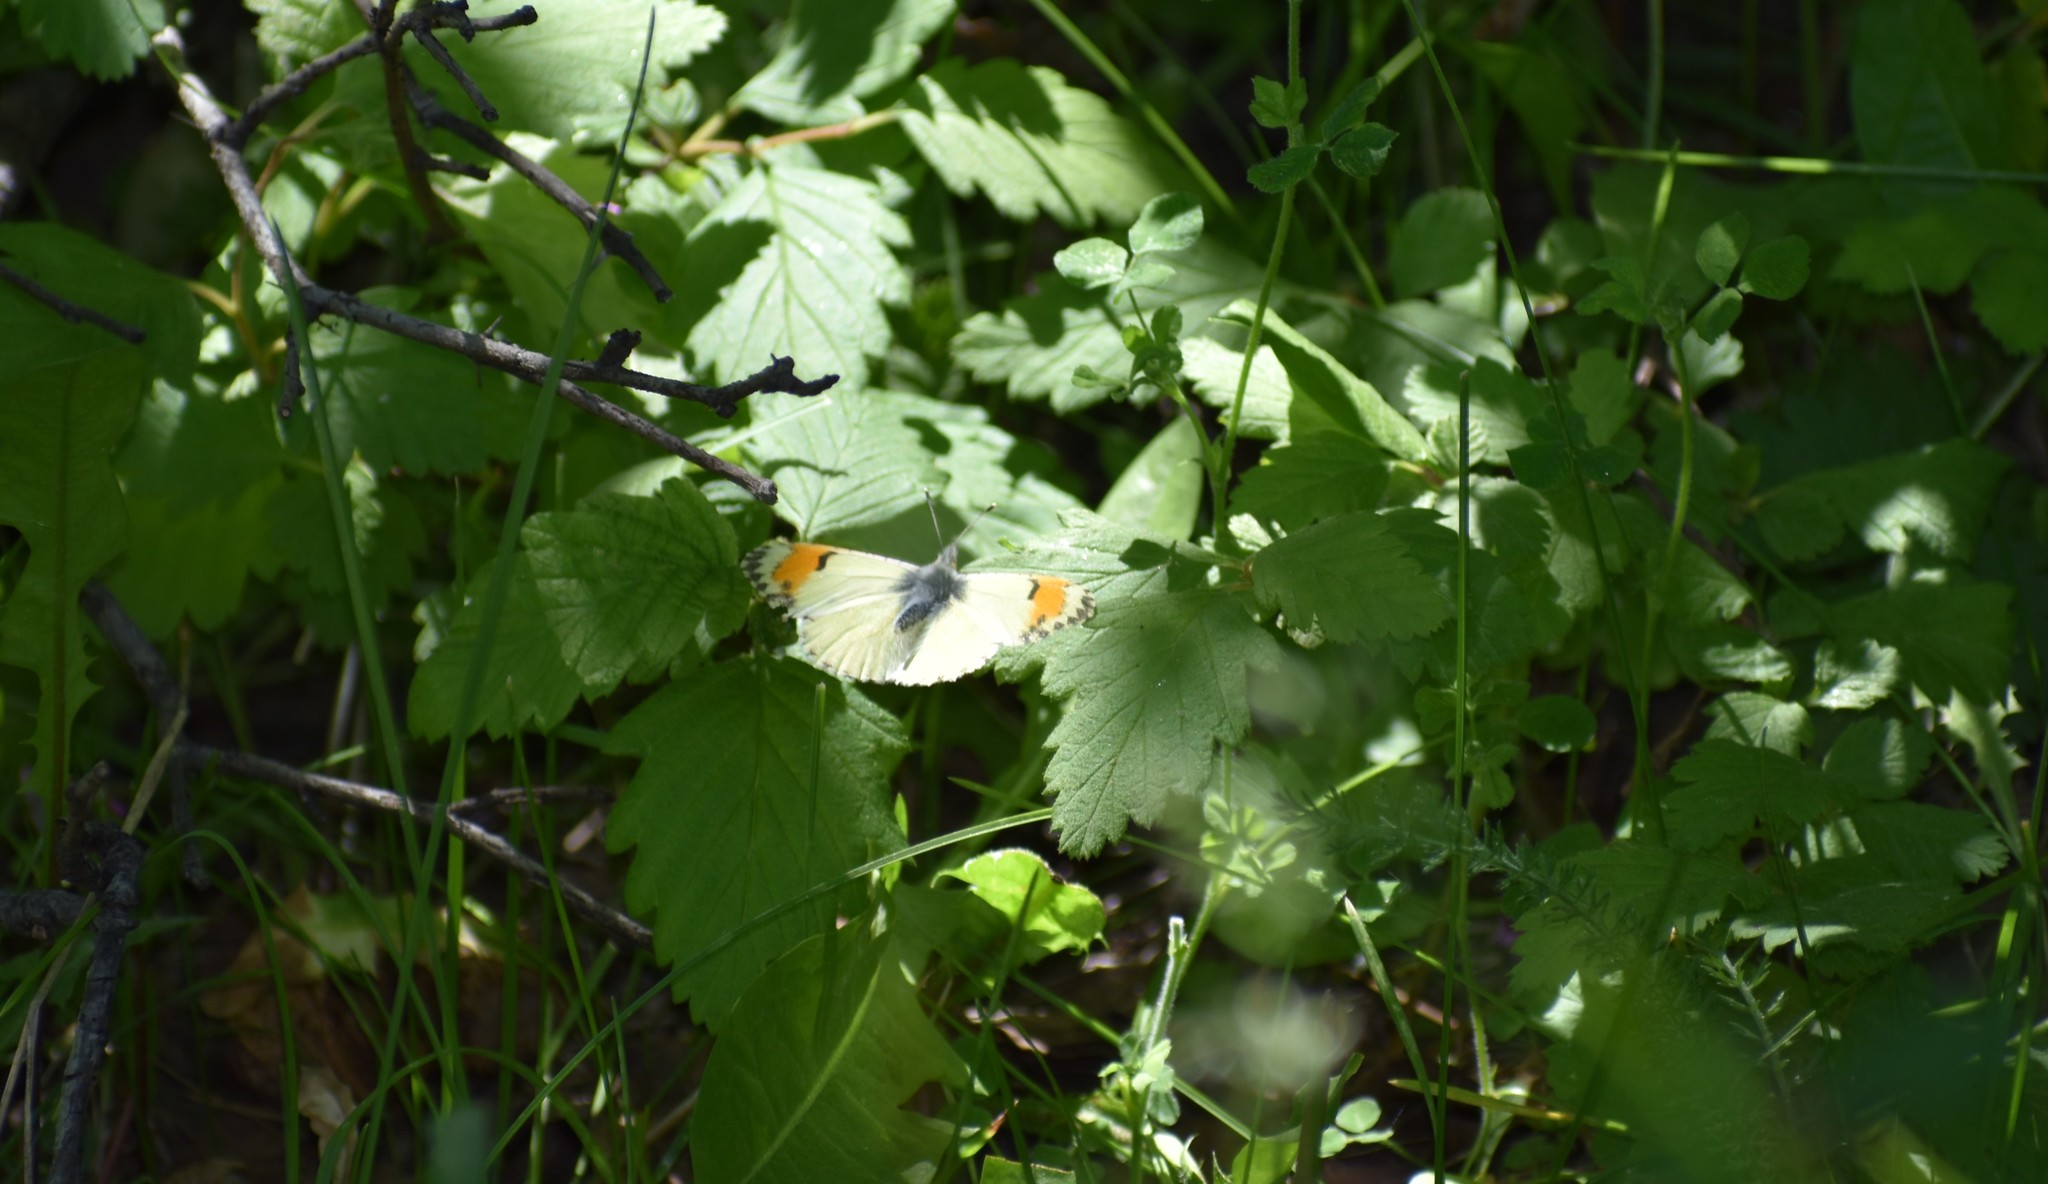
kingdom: Animalia
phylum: Arthropoda
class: Insecta
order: Lepidoptera
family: Pieridae
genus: Anthocharis
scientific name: Anthocharis julia
